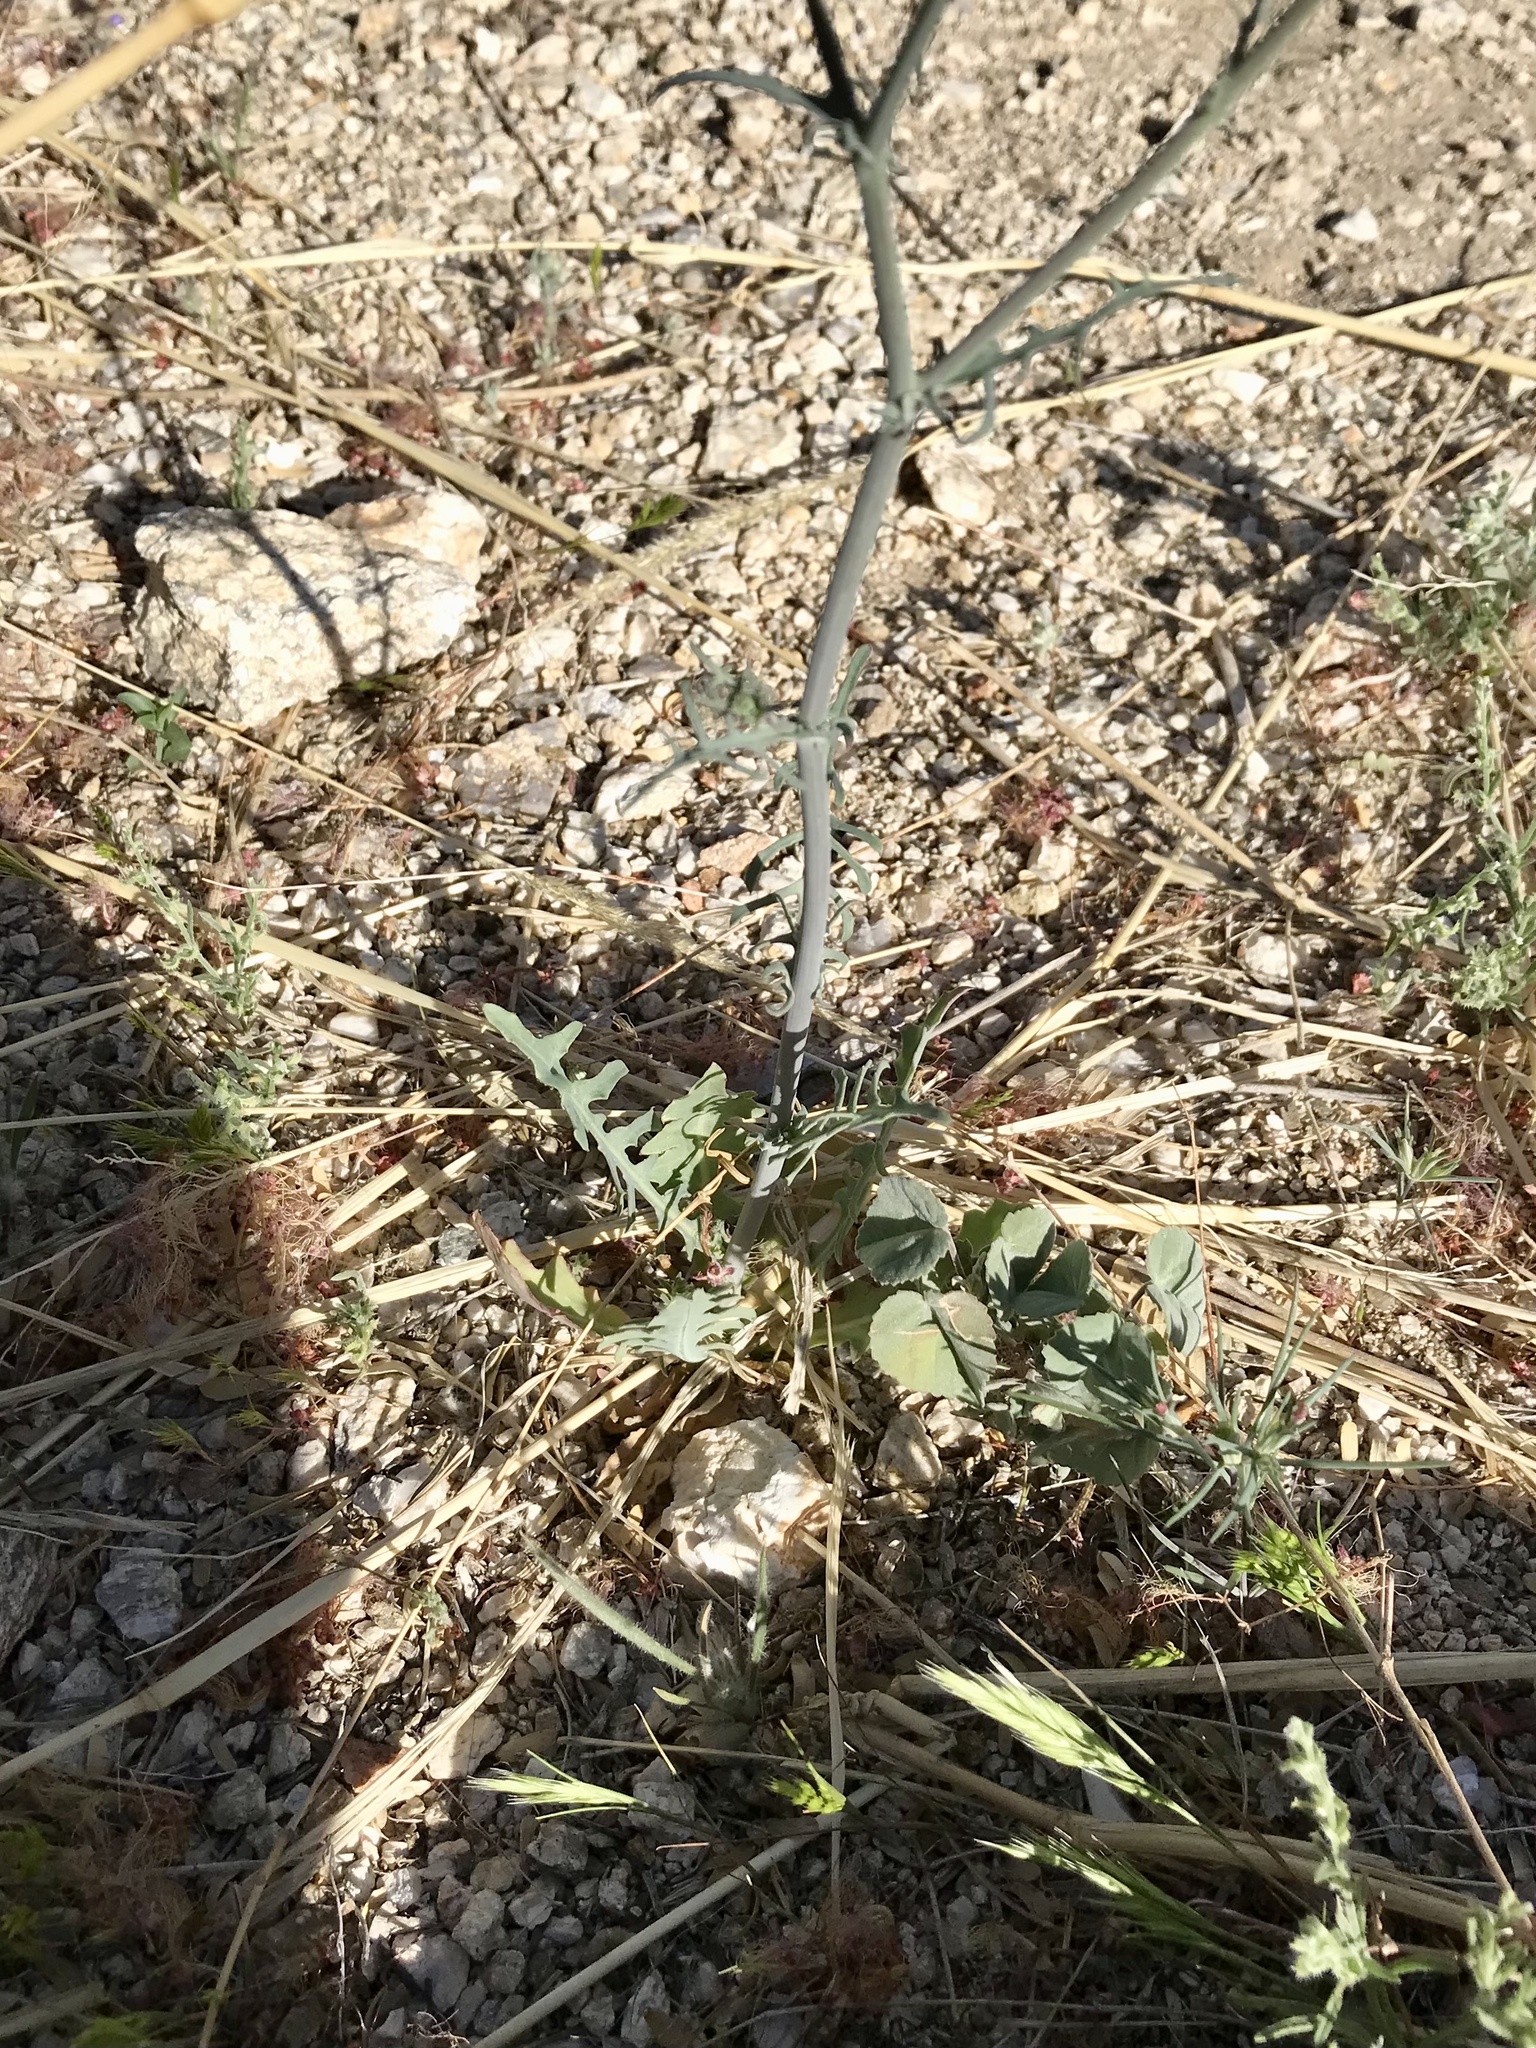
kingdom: Plantae
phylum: Tracheophyta
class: Magnoliopsida
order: Asterales
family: Asteraceae
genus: Rafinesquia
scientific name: Rafinesquia neomexicana
